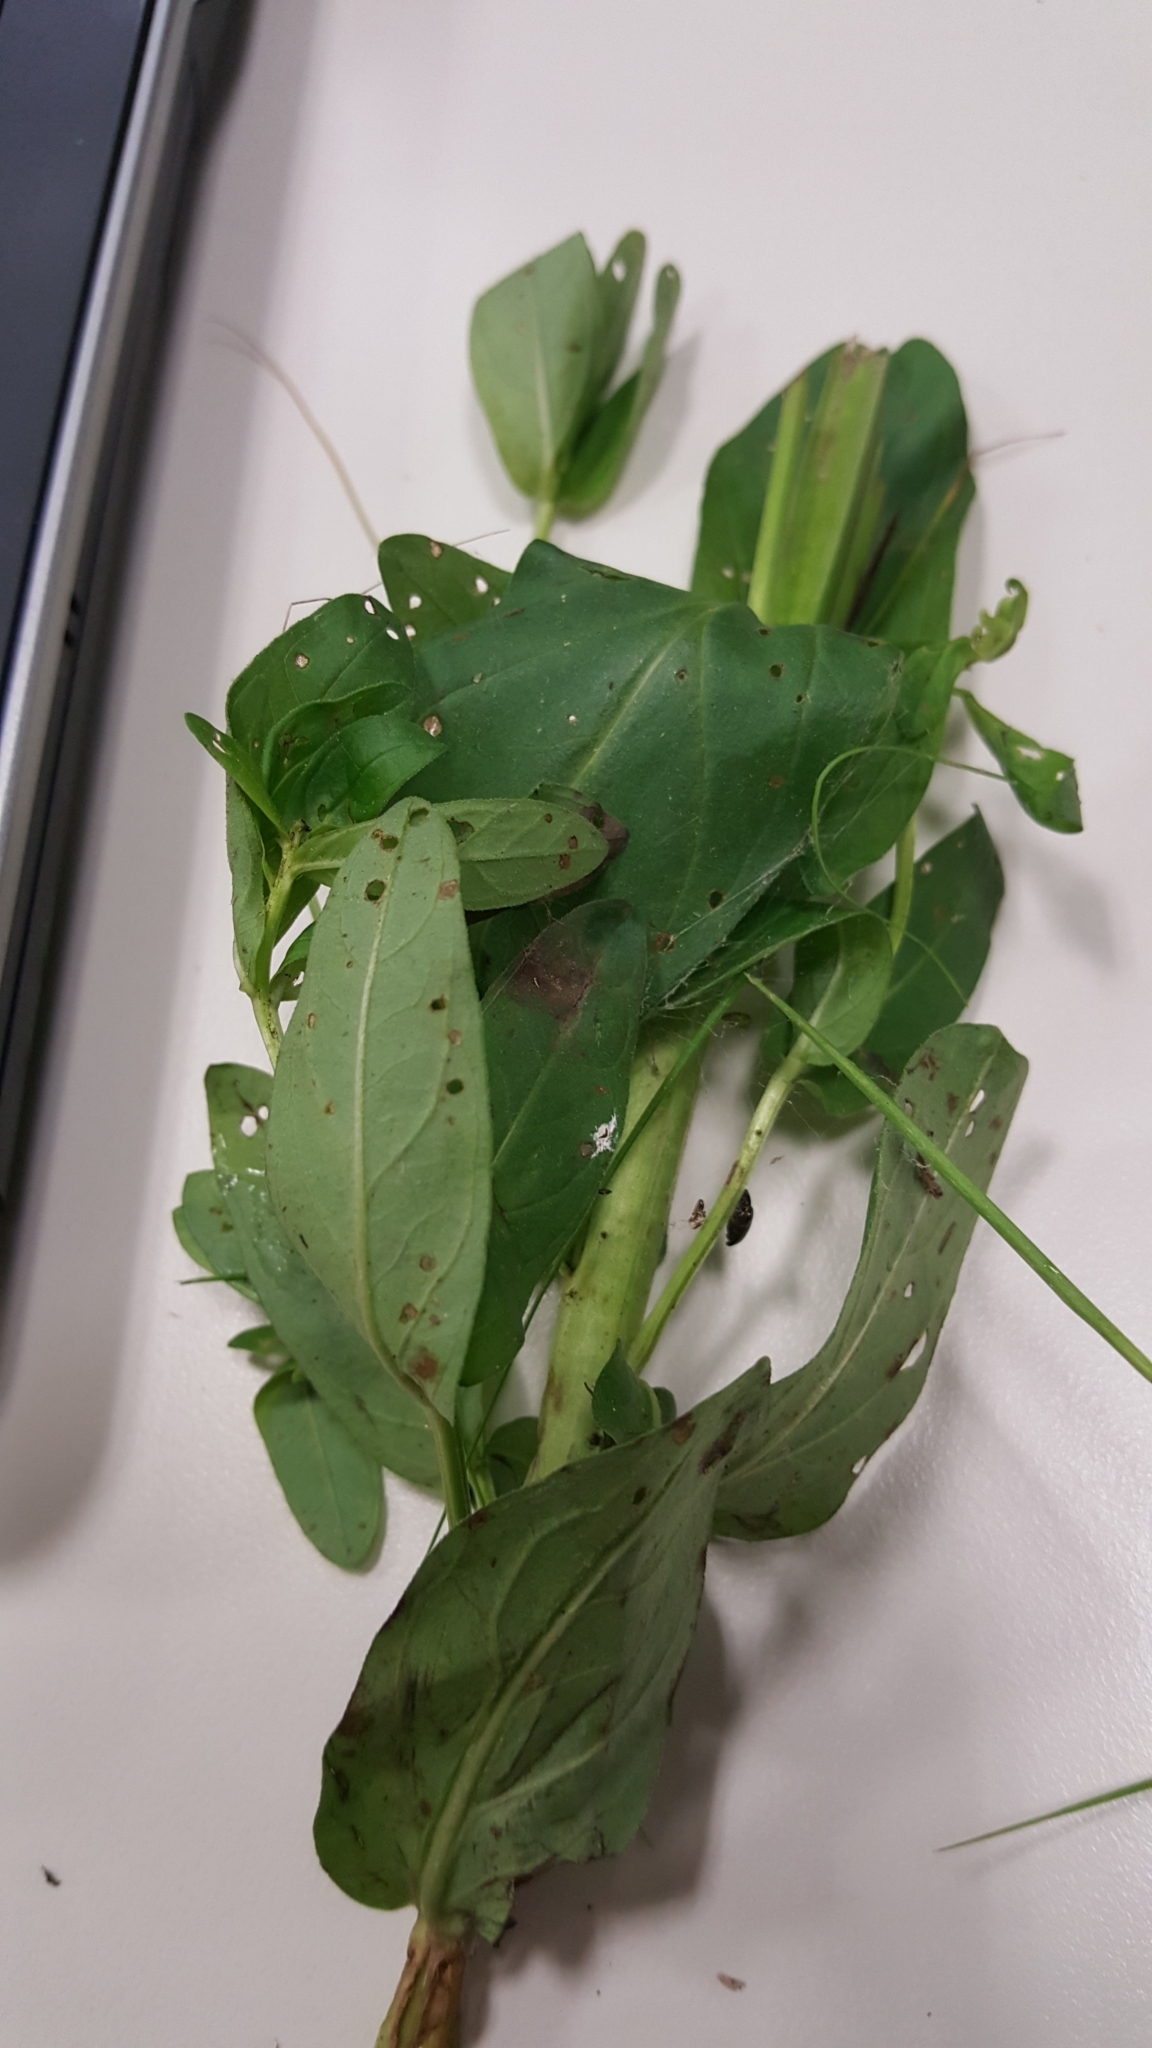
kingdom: Plantae
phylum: Tracheophyta
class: Magnoliopsida
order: Myrtales
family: Lythraceae
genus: Lythrum
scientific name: Lythrum salicaria
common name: Purple loosestrife
